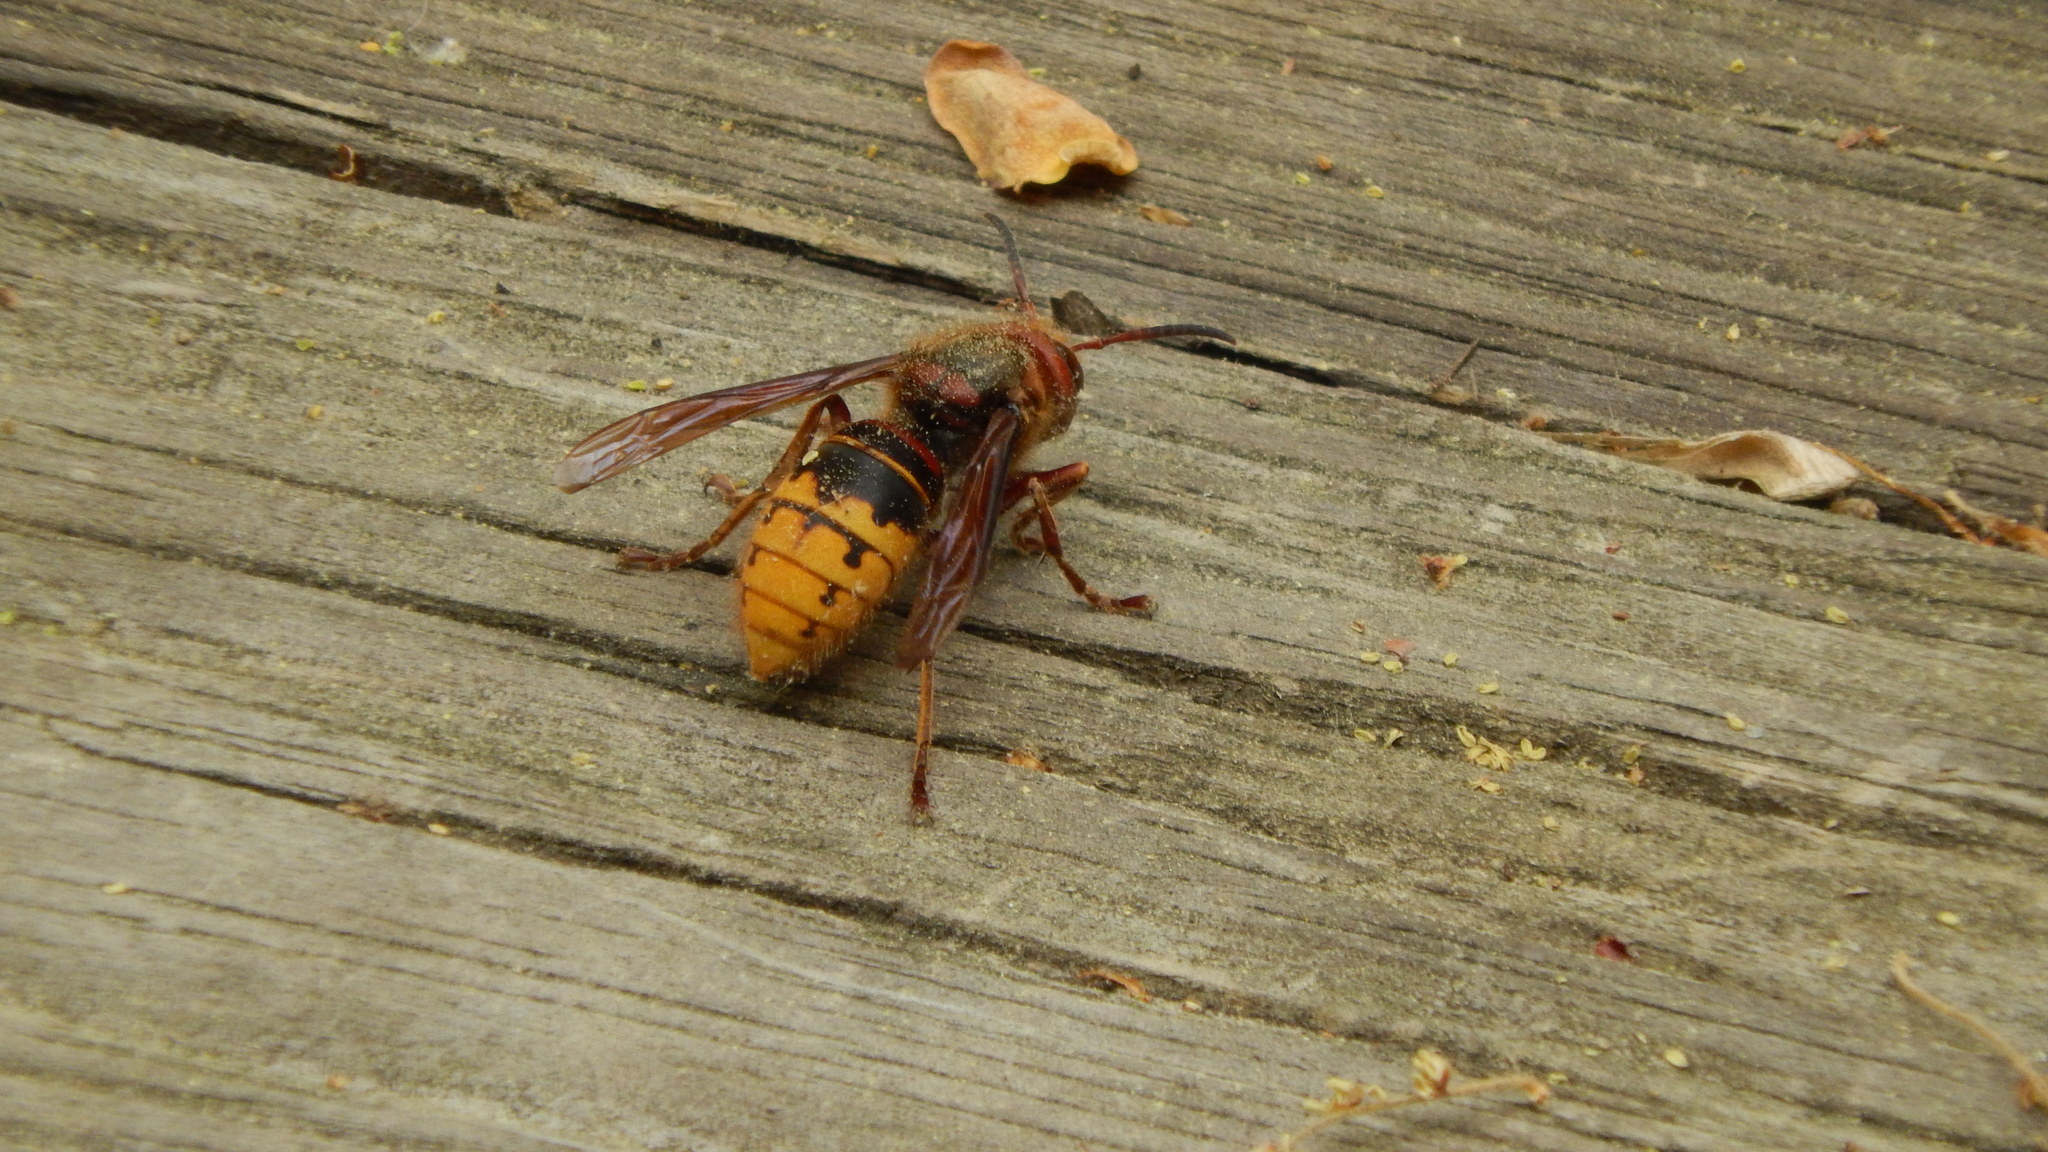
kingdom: Animalia
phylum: Arthropoda
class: Insecta
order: Hymenoptera
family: Vespidae
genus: Vespa
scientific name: Vespa crabro
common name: Hornet
